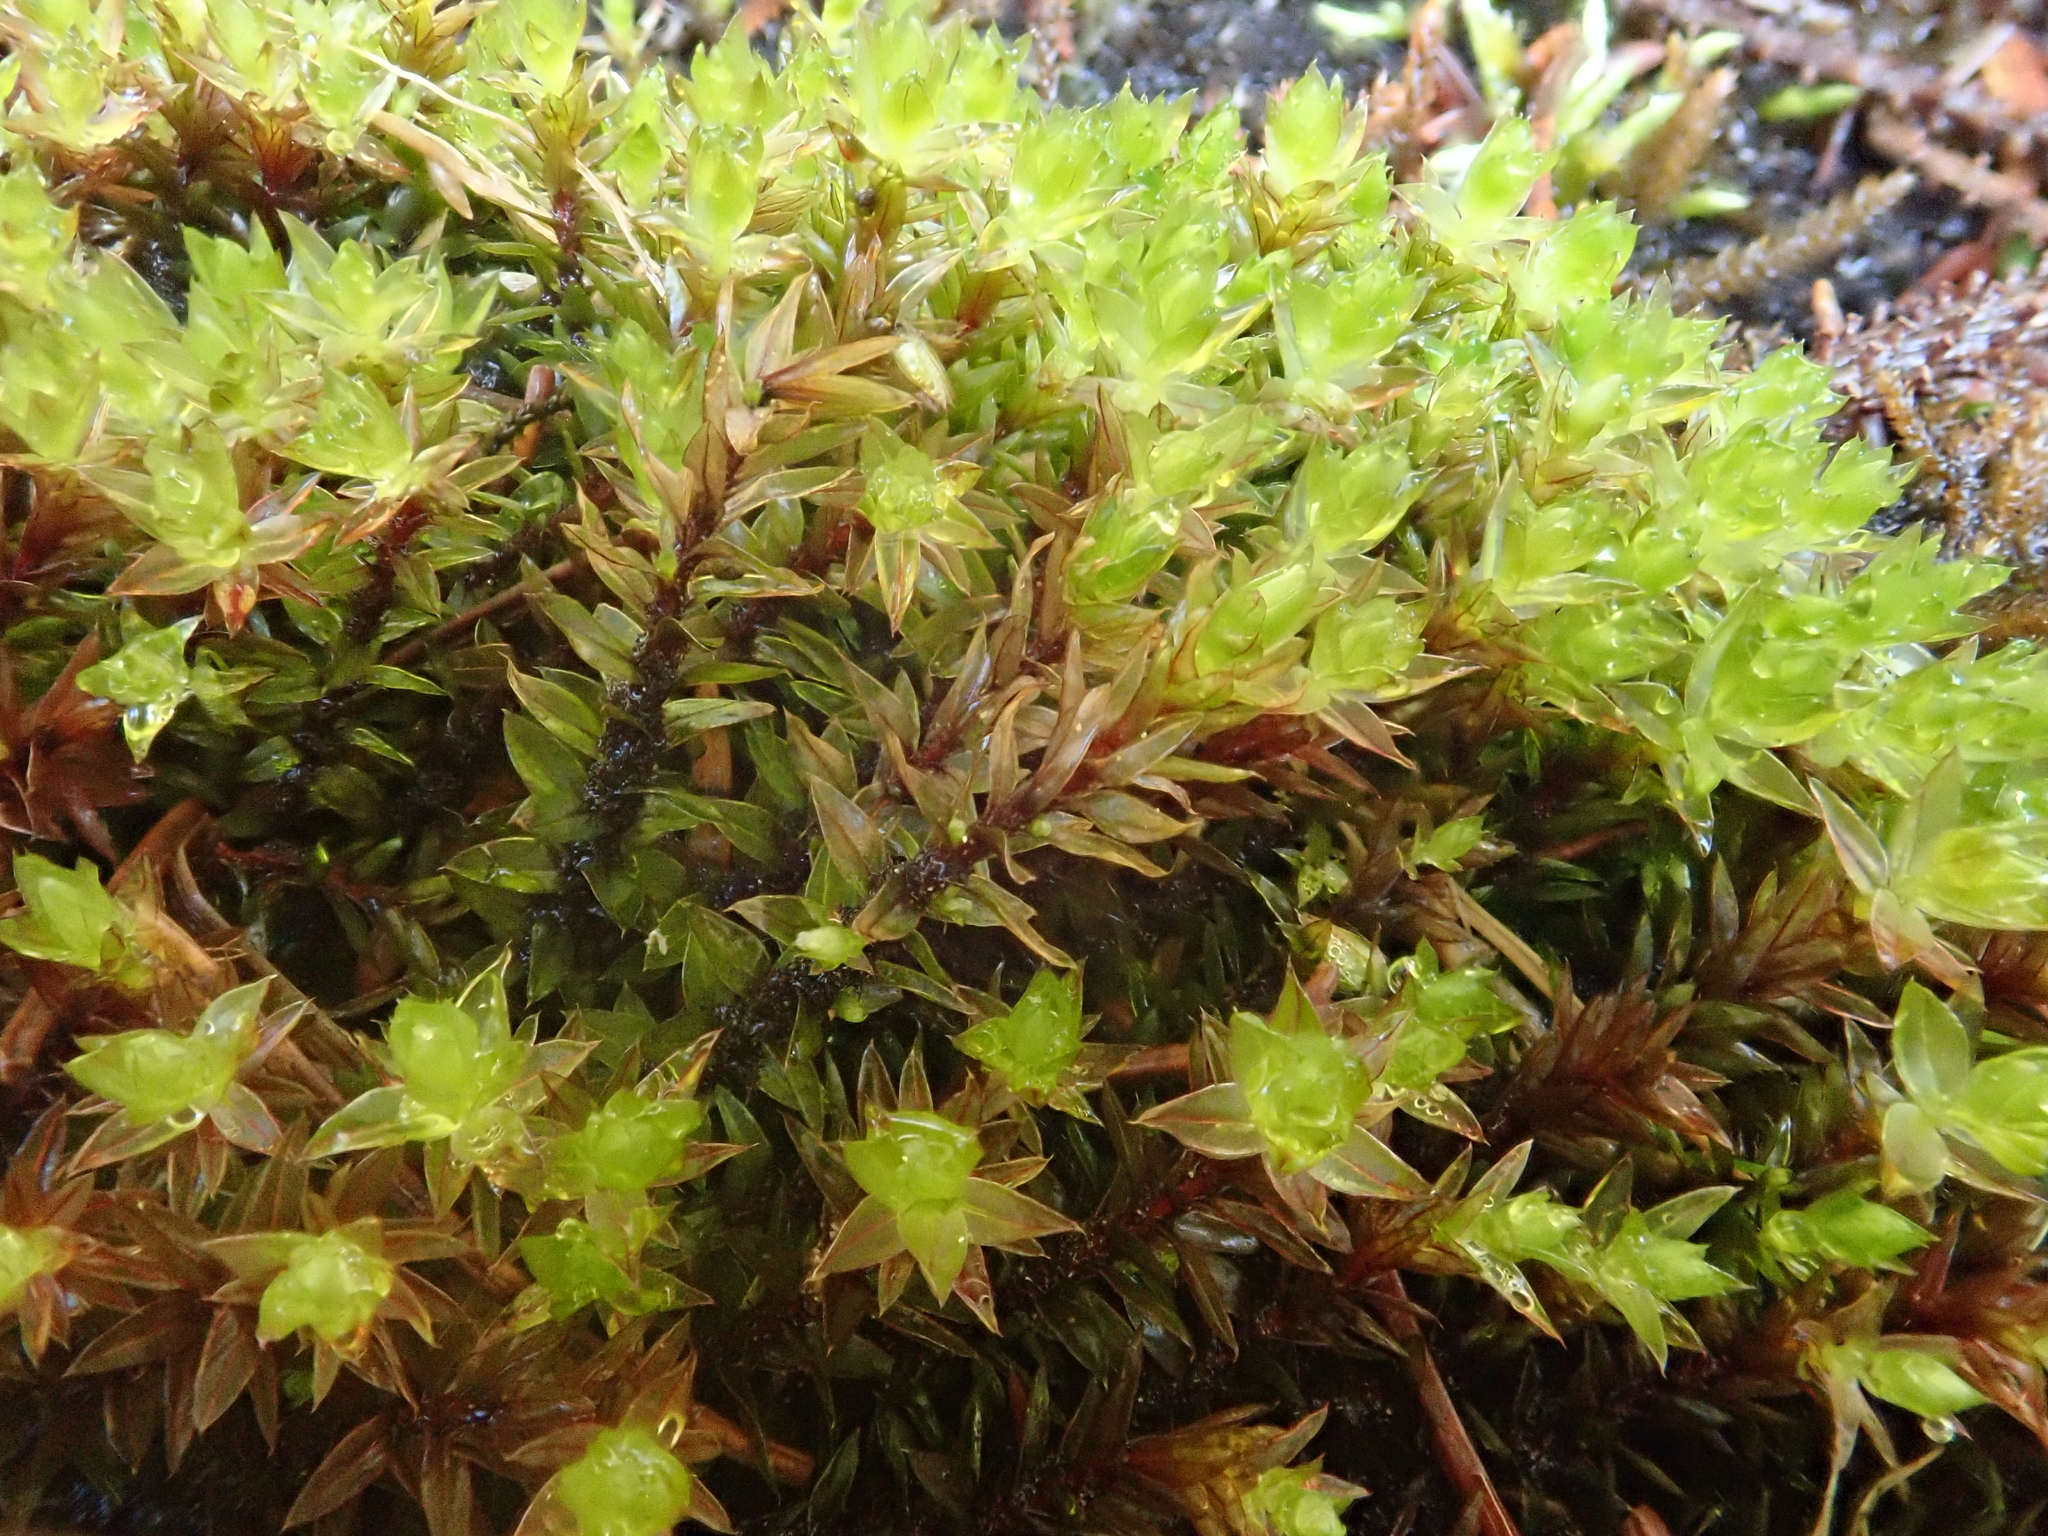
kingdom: Plantae
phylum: Bryophyta
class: Bryopsida
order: Bryales
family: Bryaceae
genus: Ptychostomum
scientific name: Ptychostomum pseudotriquetrum
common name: Long-leaved thread moss
